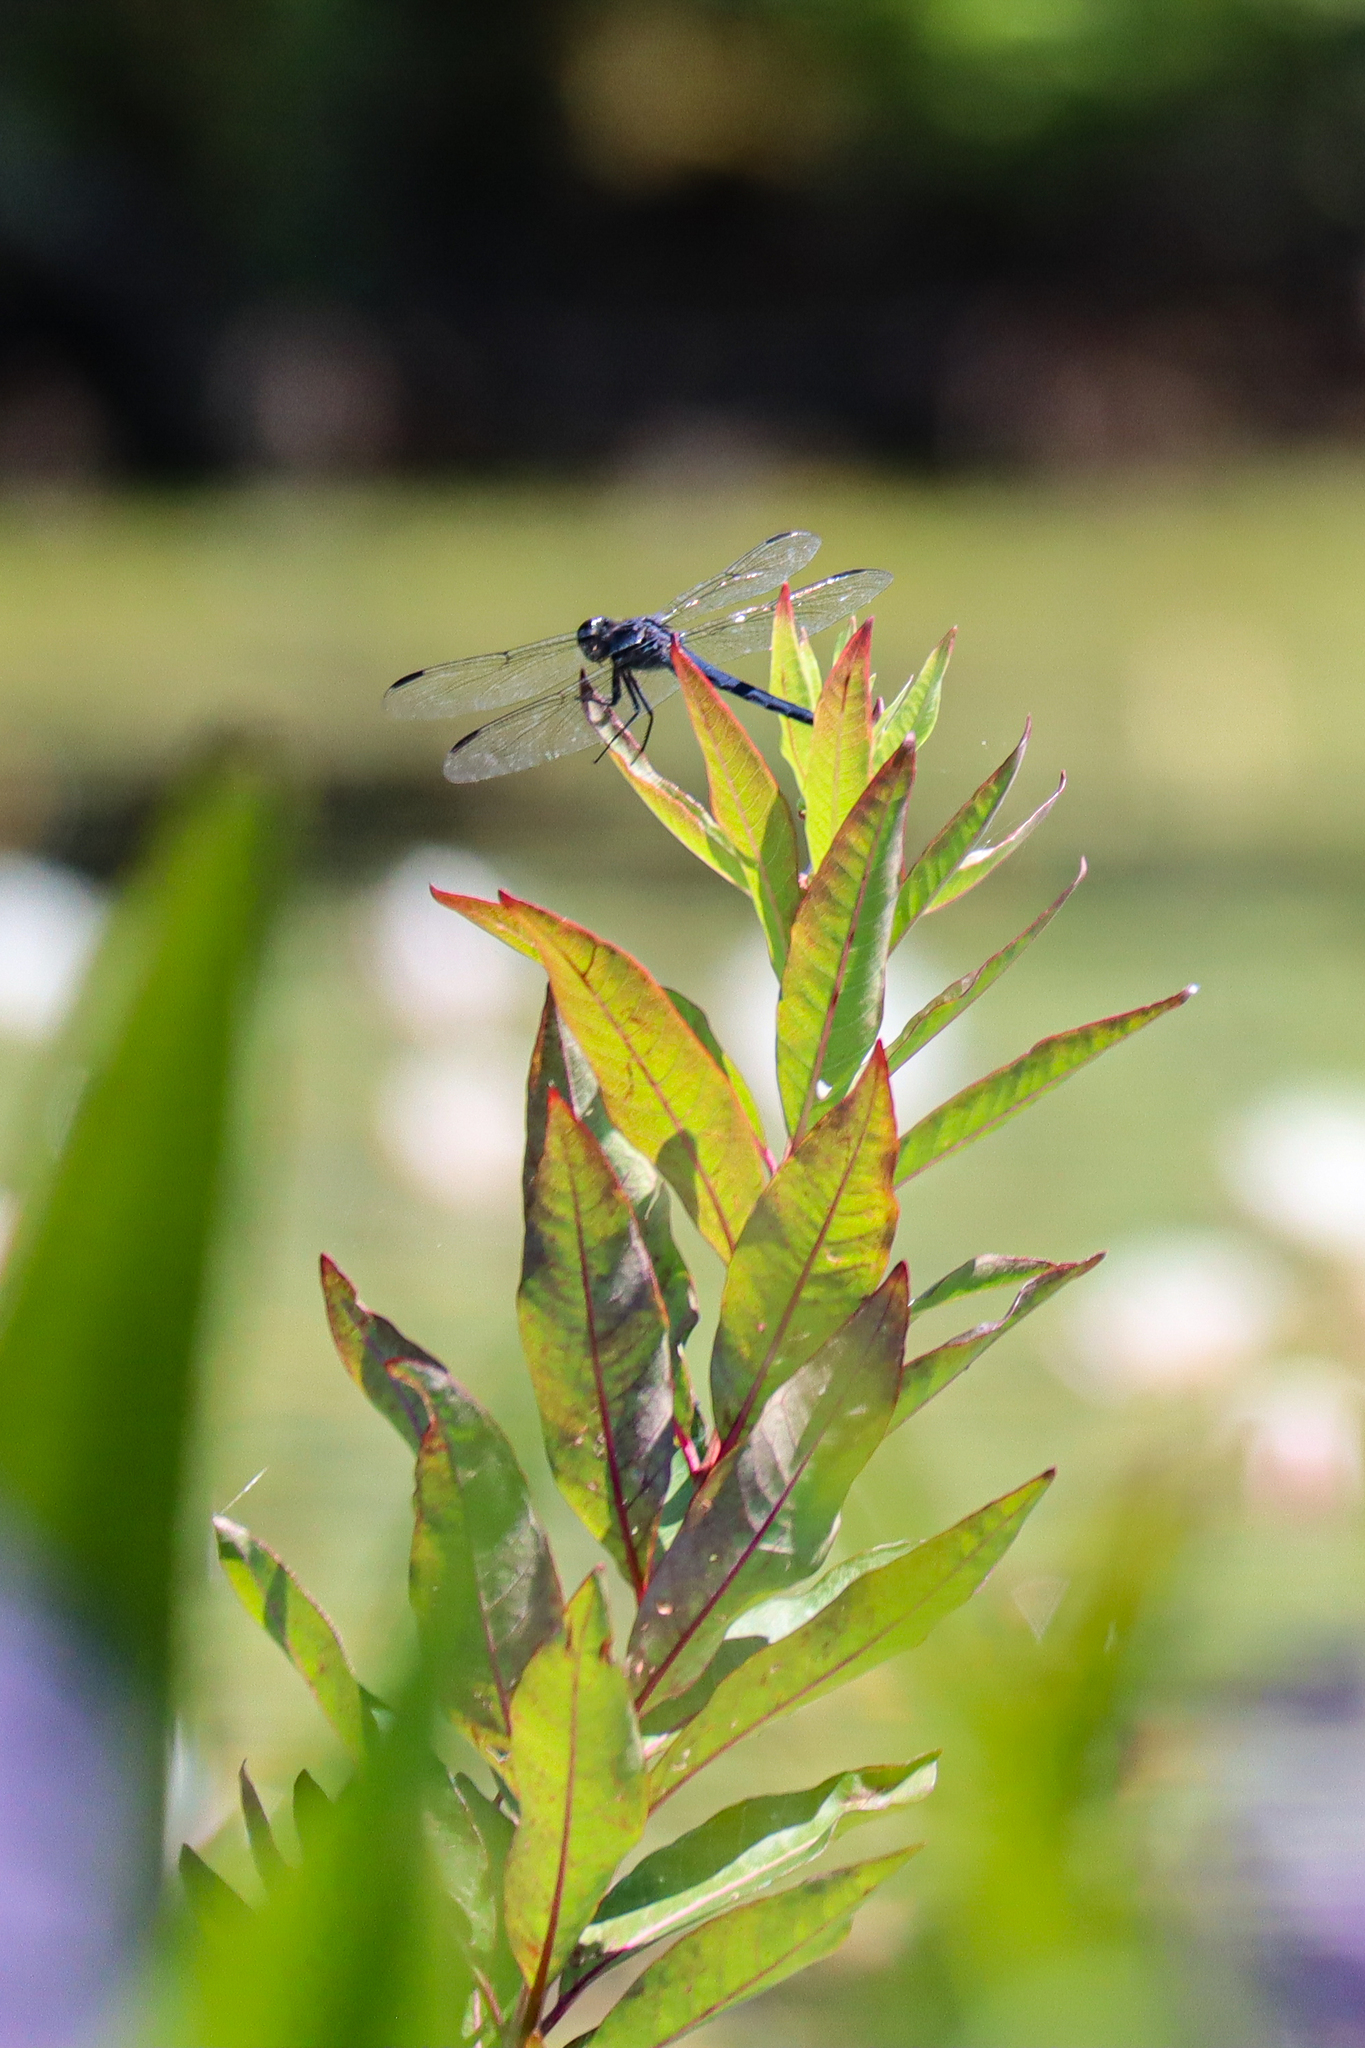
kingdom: Animalia
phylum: Arthropoda
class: Insecta
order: Odonata
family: Libellulidae
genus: Libellula
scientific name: Libellula incesta
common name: Slaty skimmer
